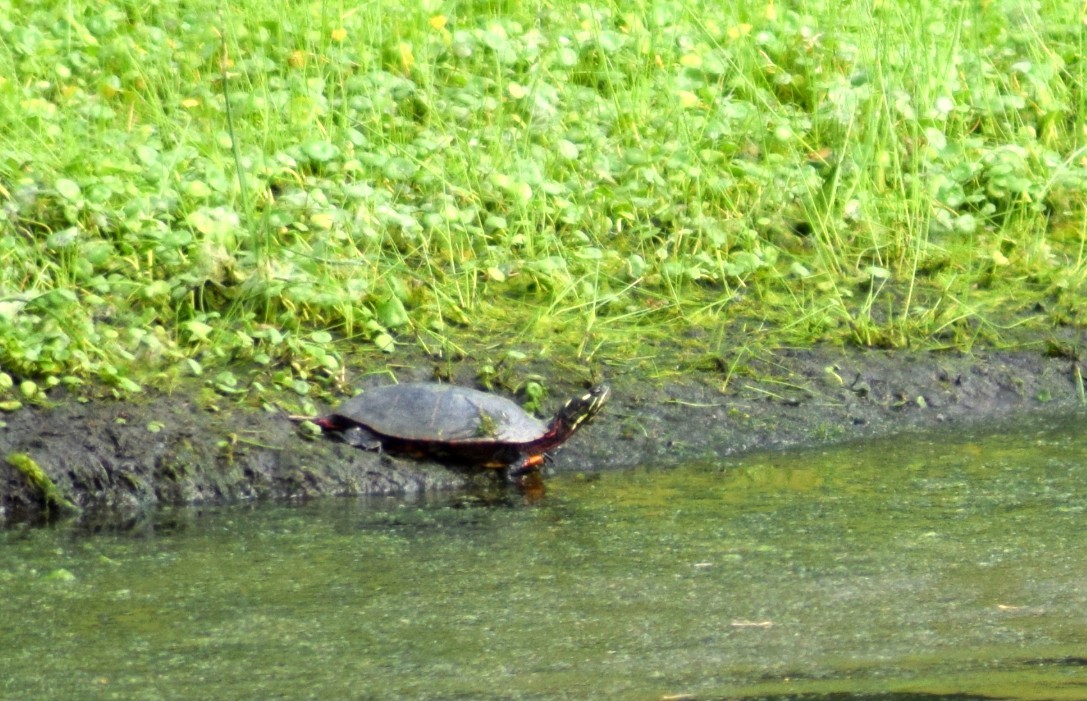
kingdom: Animalia
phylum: Chordata
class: Testudines
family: Emydidae
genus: Chrysemys
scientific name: Chrysemys picta
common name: Painted turtle
